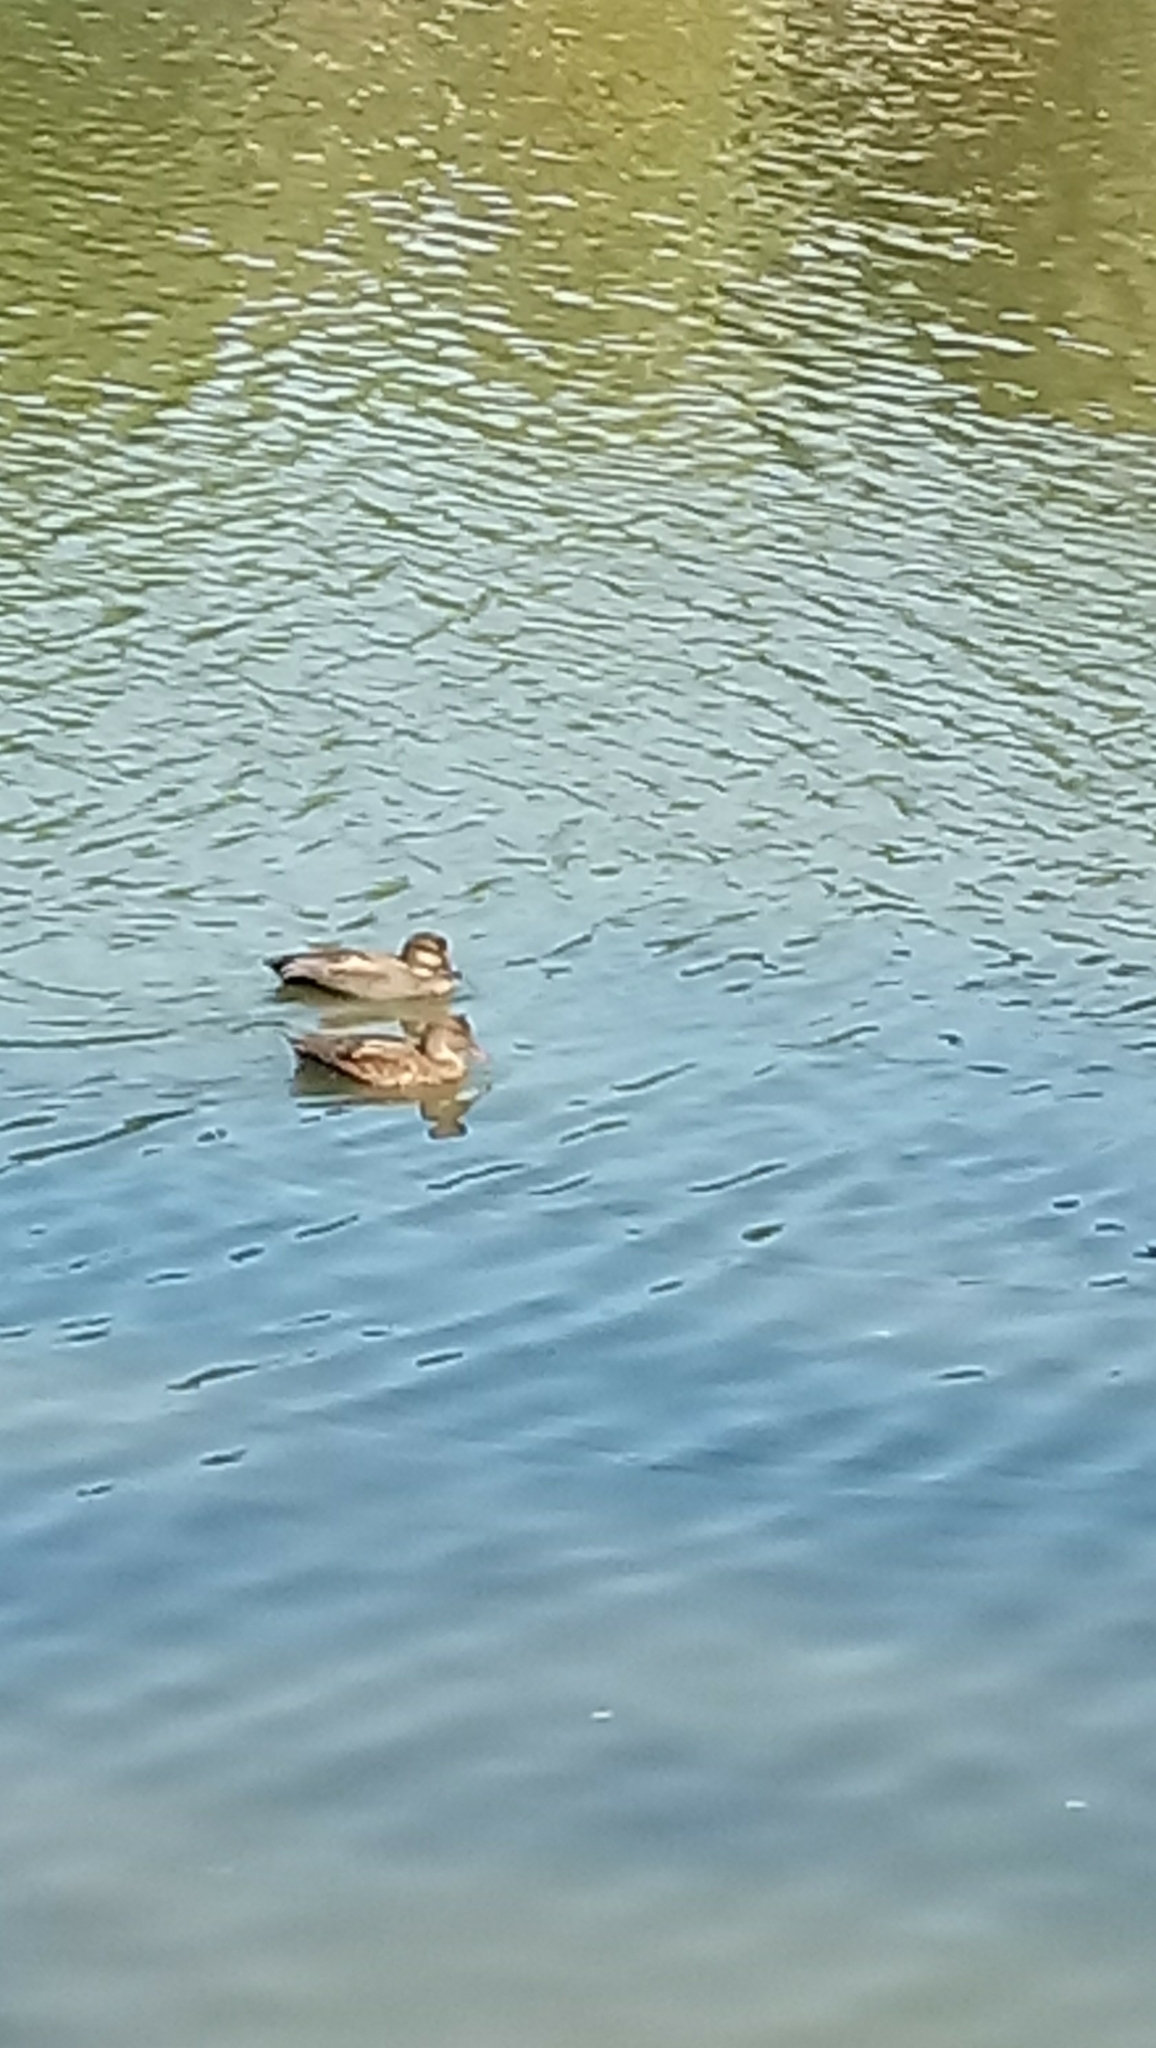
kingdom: Animalia
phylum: Chordata
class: Aves
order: Anseriformes
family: Anatidae
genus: Mareca
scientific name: Mareca strepera
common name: Gadwall
